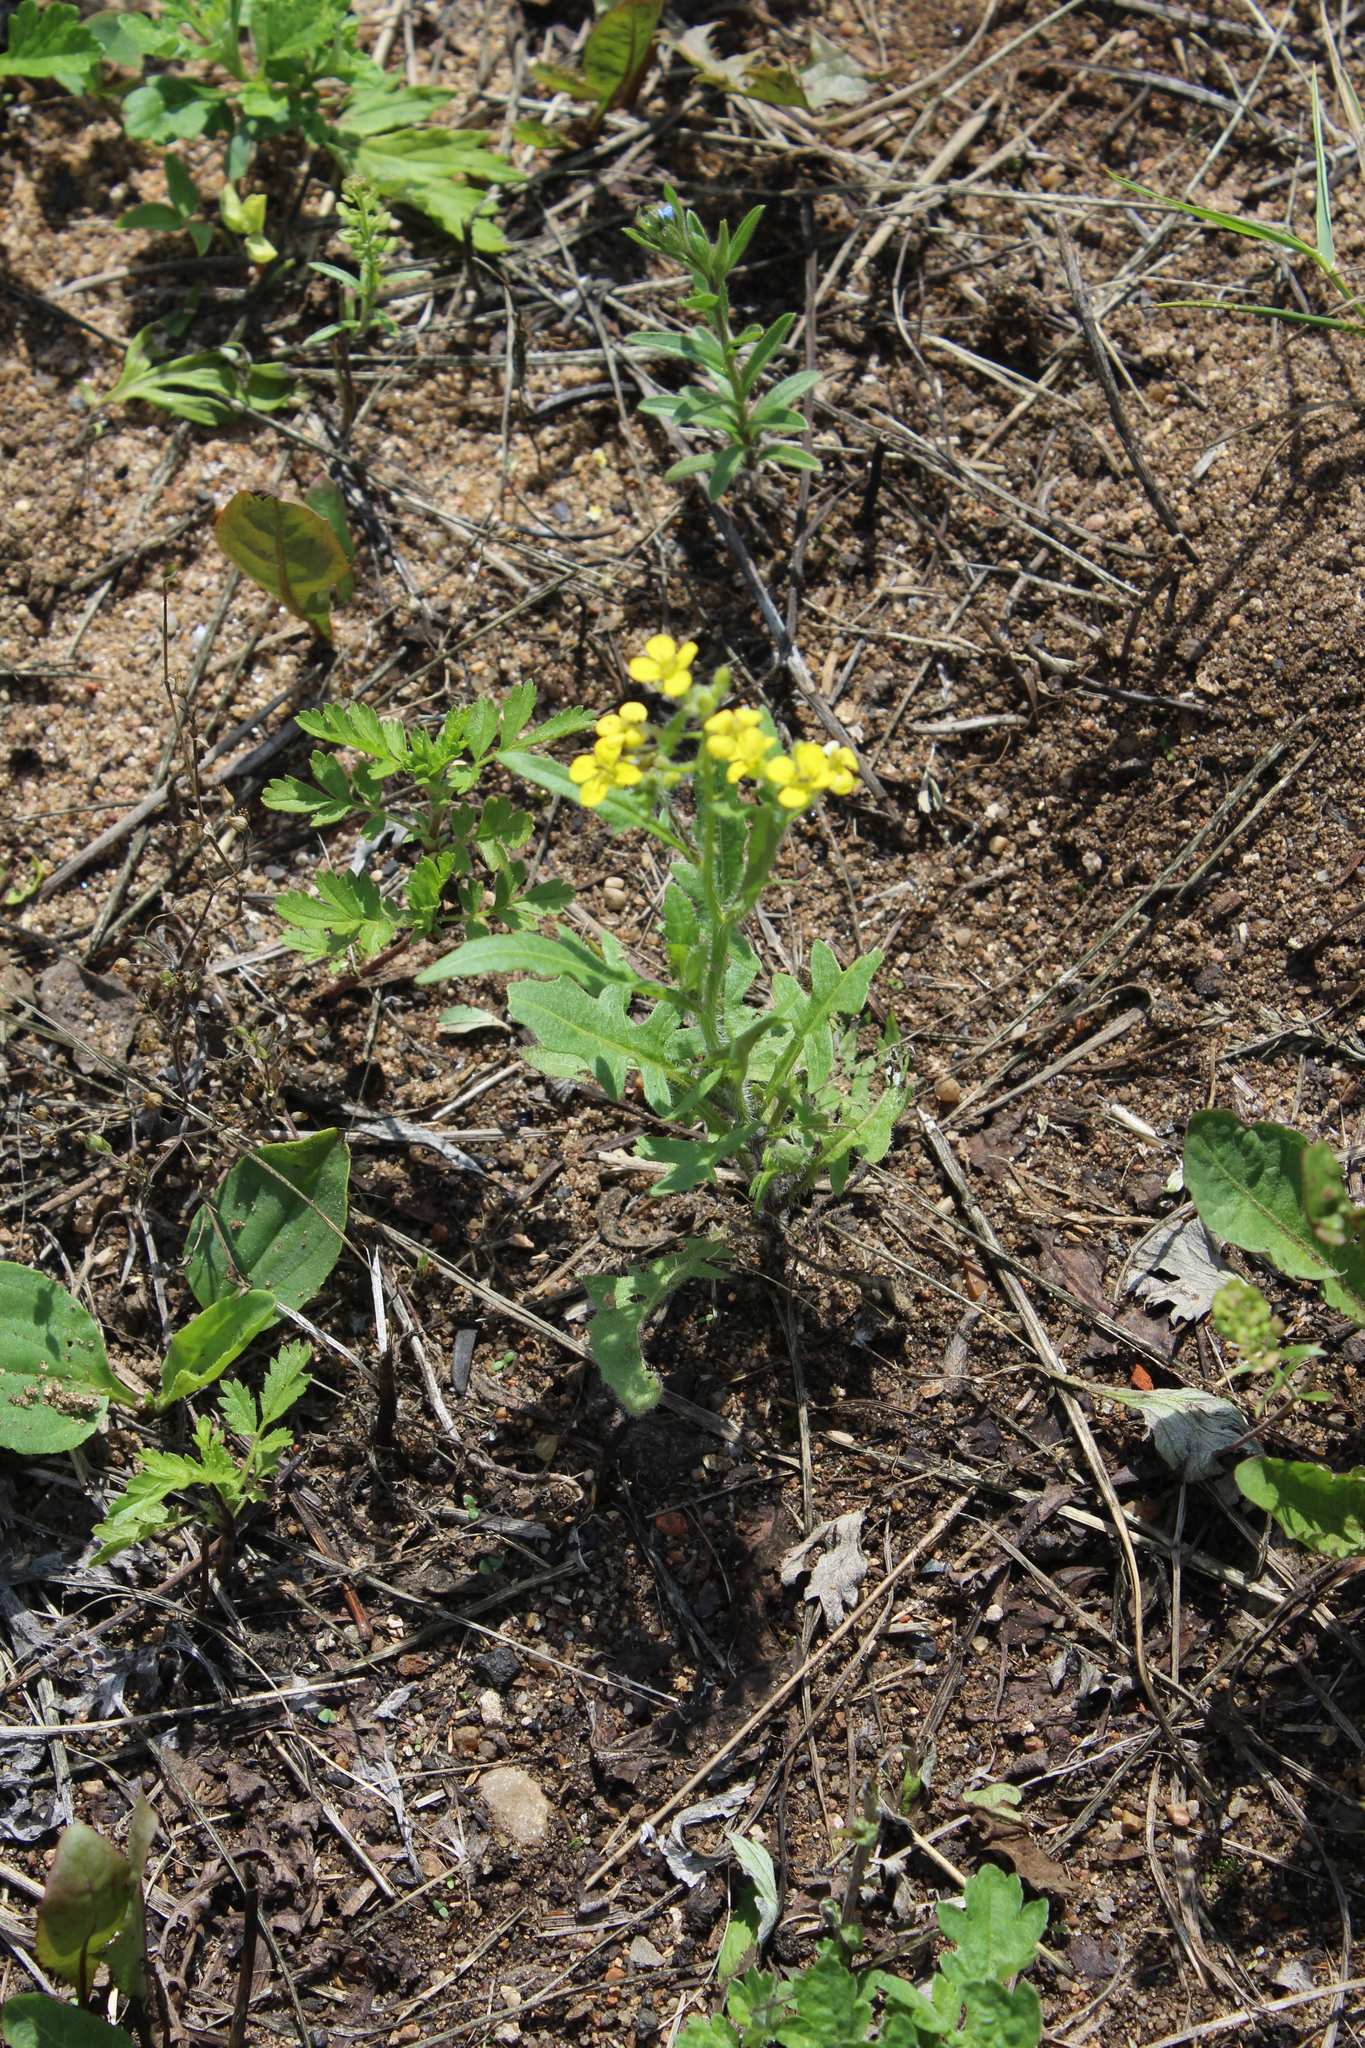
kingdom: Plantae
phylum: Tracheophyta
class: Magnoliopsida
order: Brassicales
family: Brassicaceae
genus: Sisymbrium
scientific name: Sisymbrium loeselii
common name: False london-rocket
